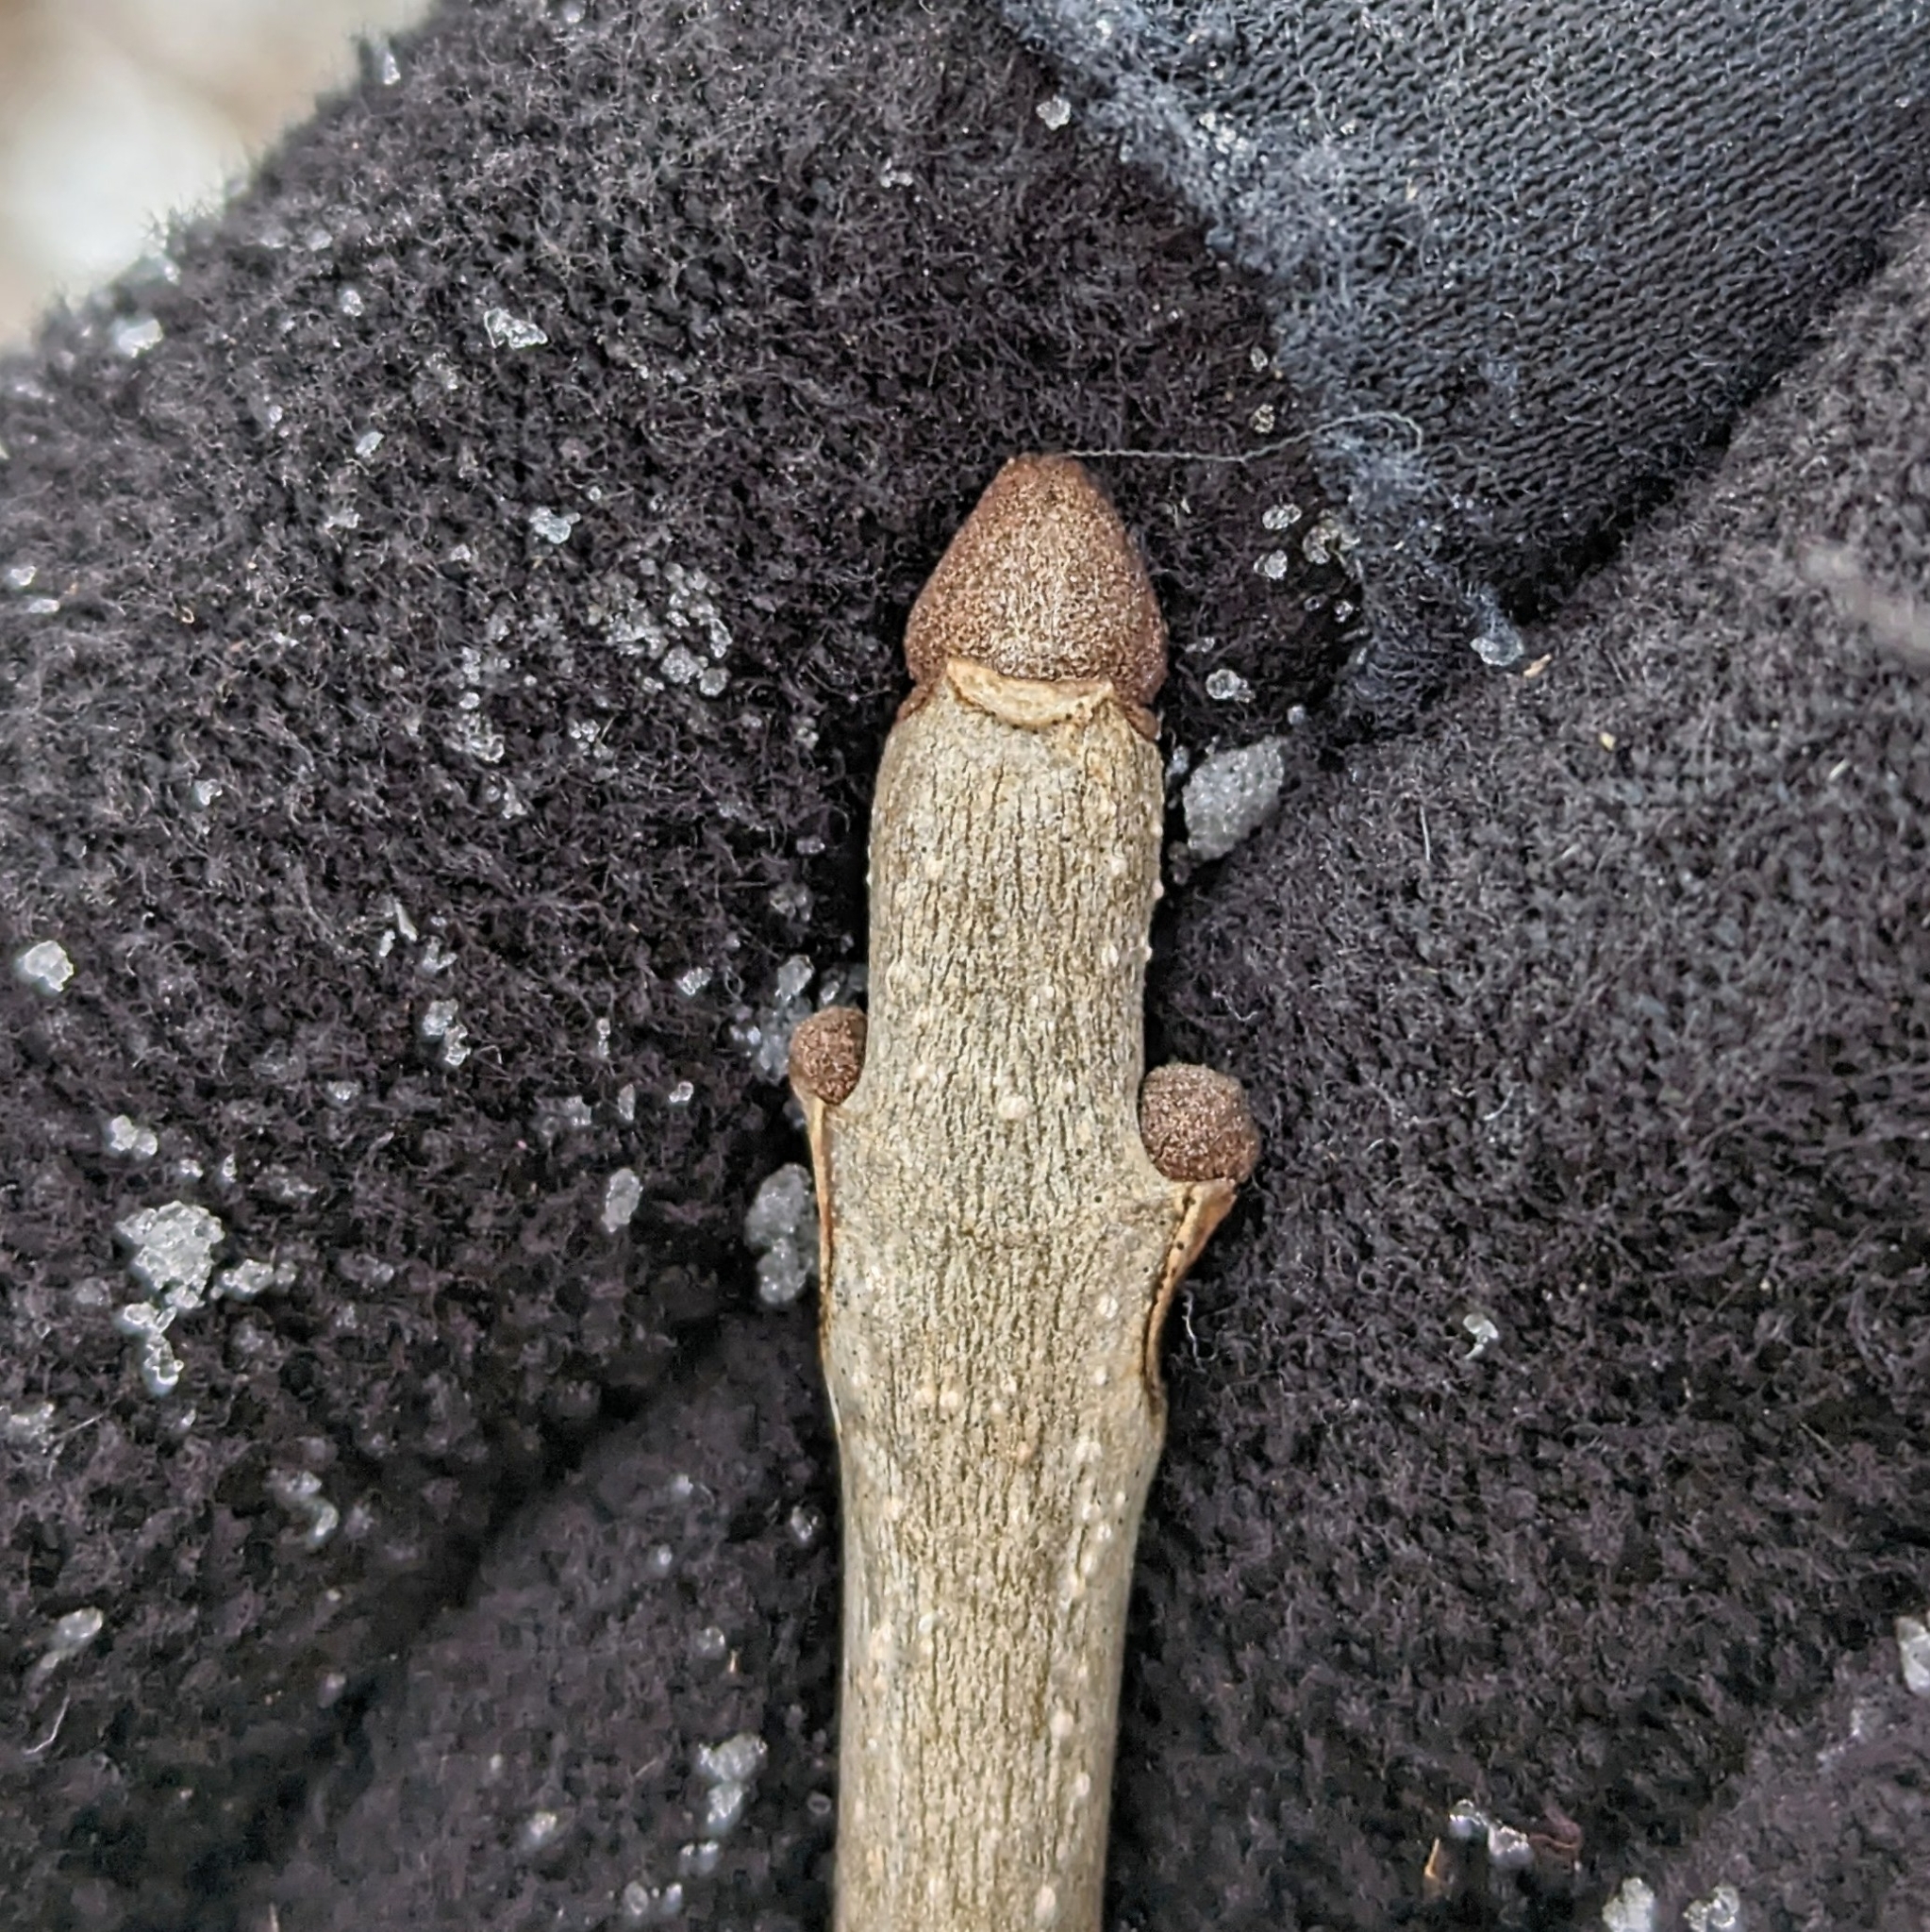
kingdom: Plantae
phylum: Tracheophyta
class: Magnoliopsida
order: Lamiales
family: Oleaceae
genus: Fraxinus
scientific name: Fraxinus pennsylvanica
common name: Green ash
